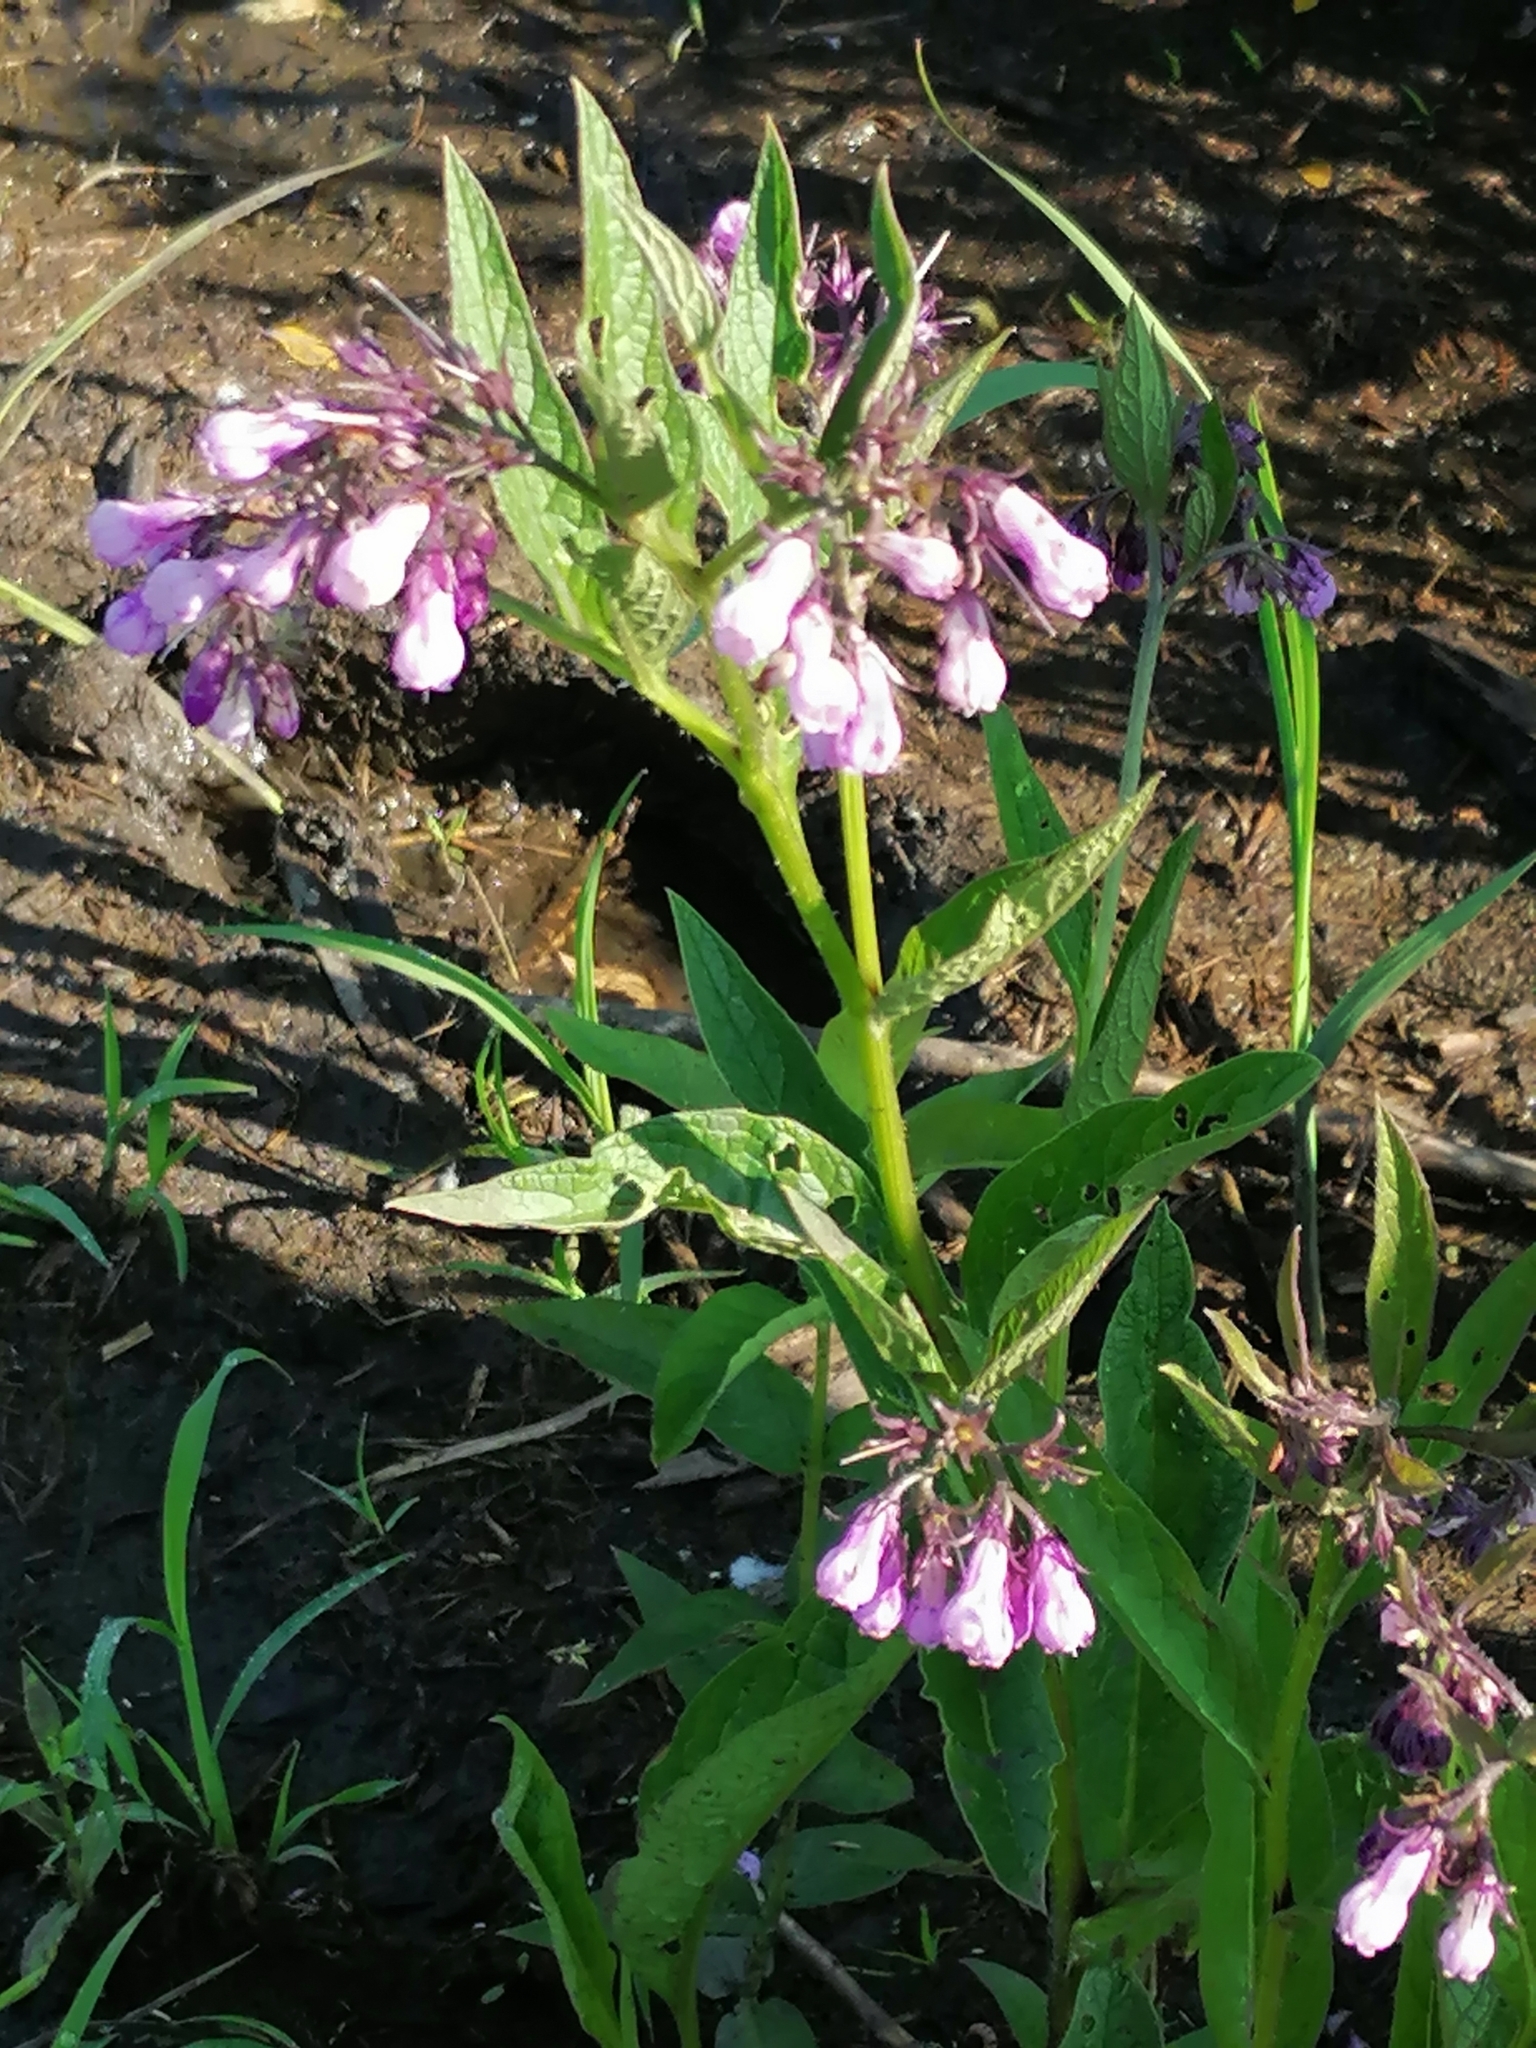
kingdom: Plantae
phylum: Tracheophyta
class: Magnoliopsida
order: Boraginales
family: Boraginaceae
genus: Symphytum
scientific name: Symphytum officinale
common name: Common comfrey
